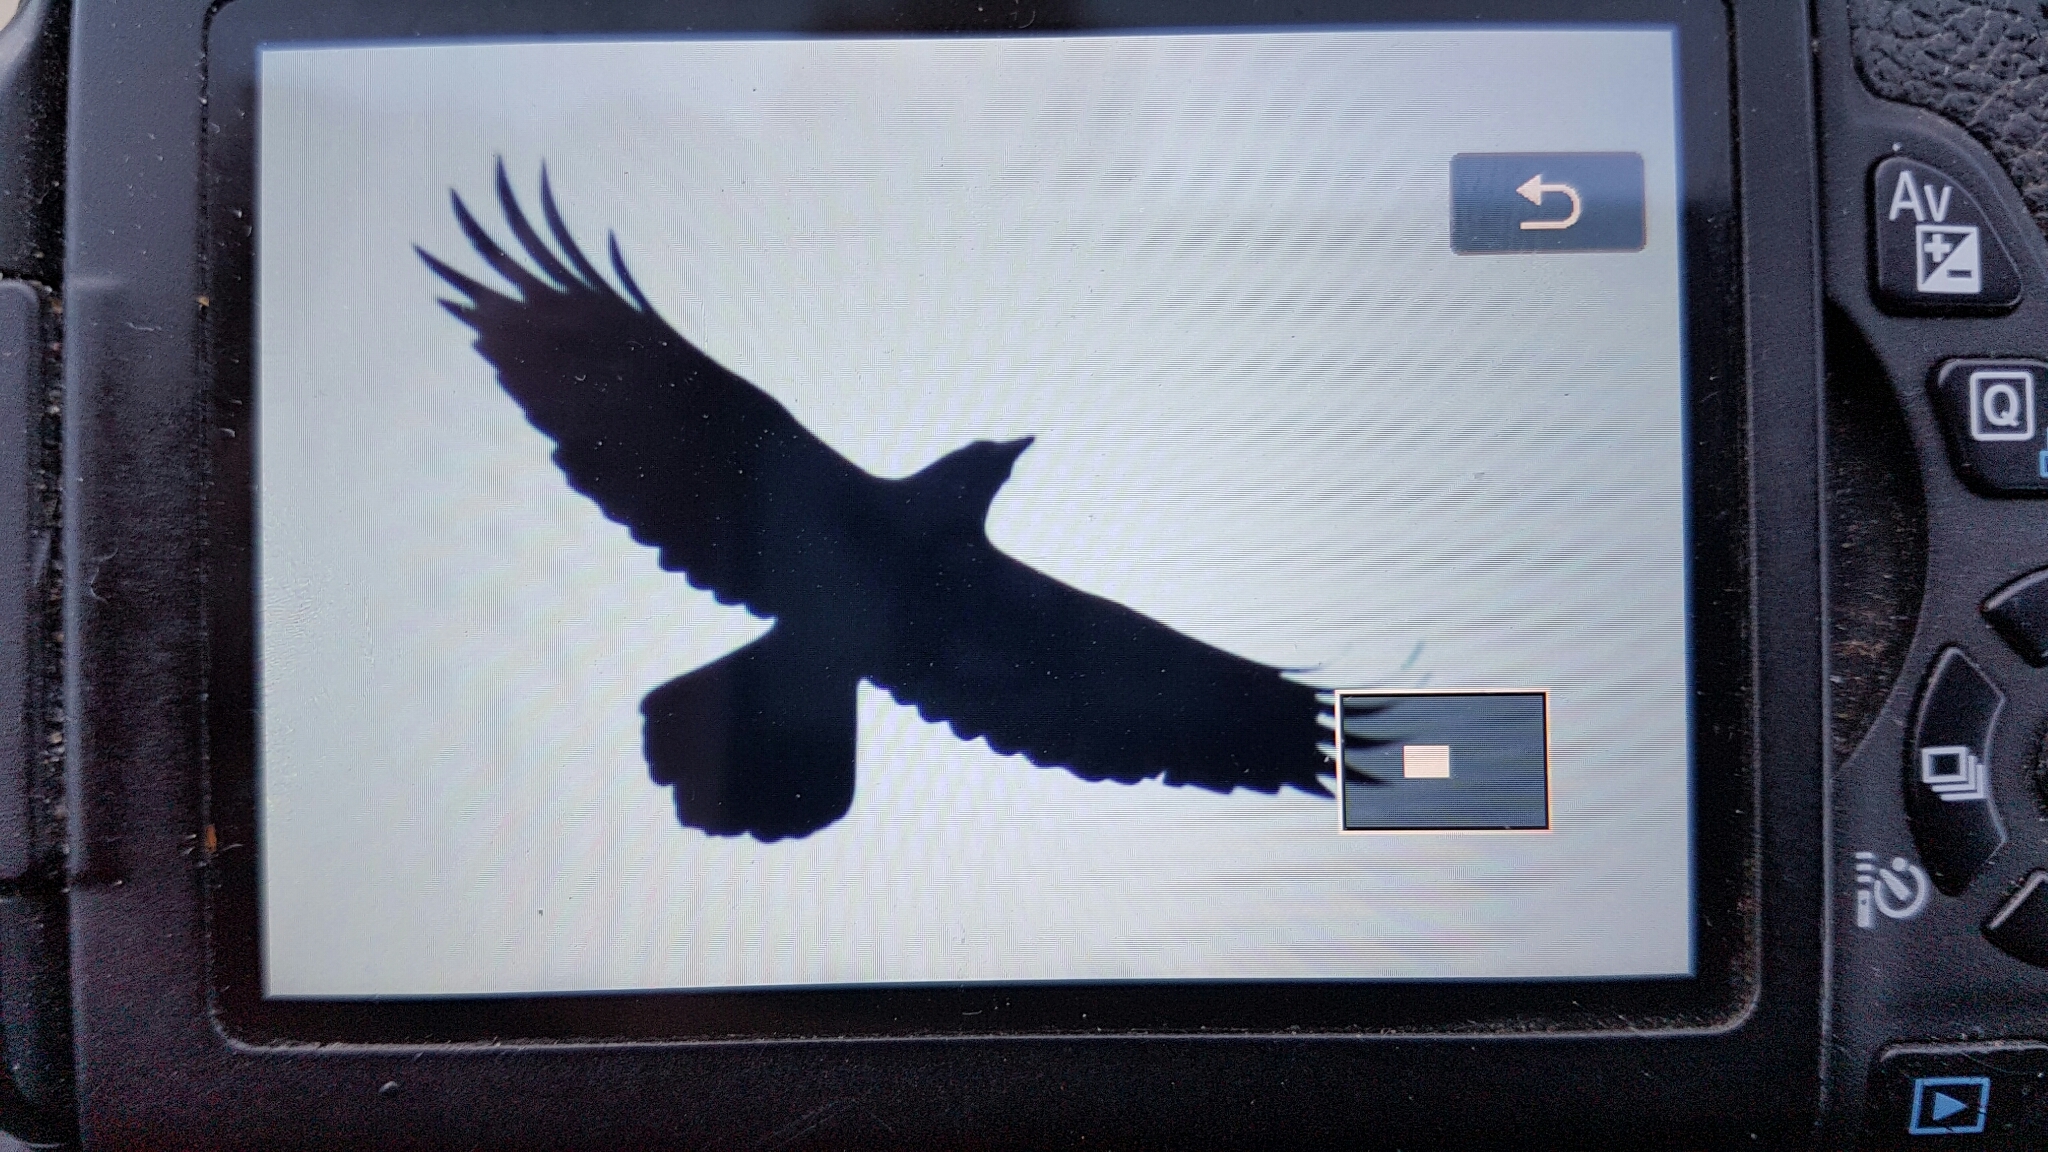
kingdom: Animalia
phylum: Chordata
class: Aves
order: Passeriformes
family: Corvidae
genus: Corvus
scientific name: Corvus corax
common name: Common raven
